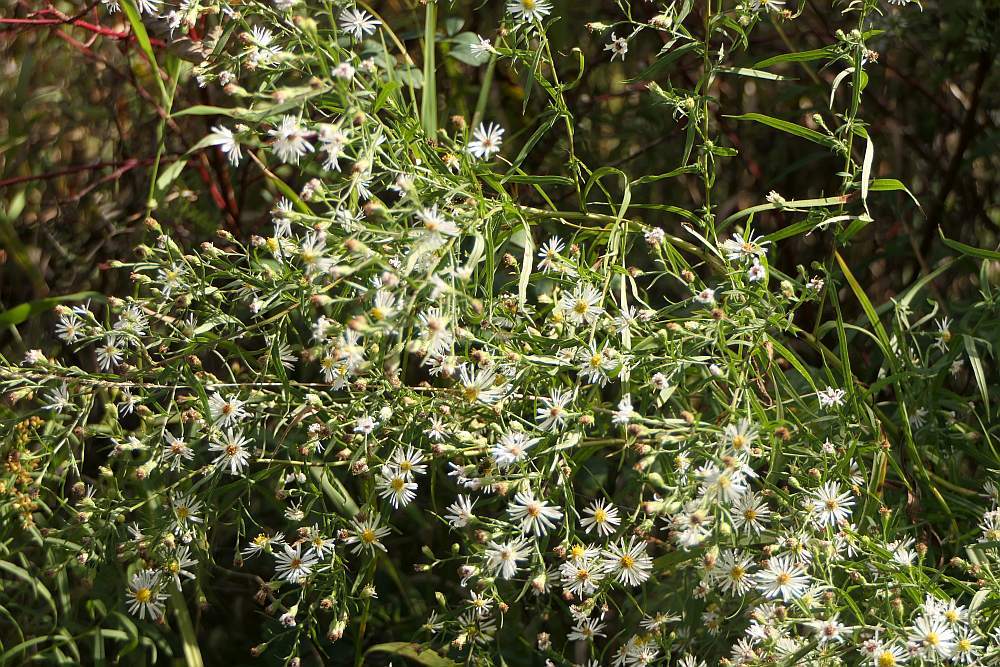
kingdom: Plantae
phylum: Tracheophyta
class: Magnoliopsida
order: Asterales
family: Asteraceae
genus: Symphyotrichum
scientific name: Symphyotrichum lanceolatum
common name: Panicled aster
